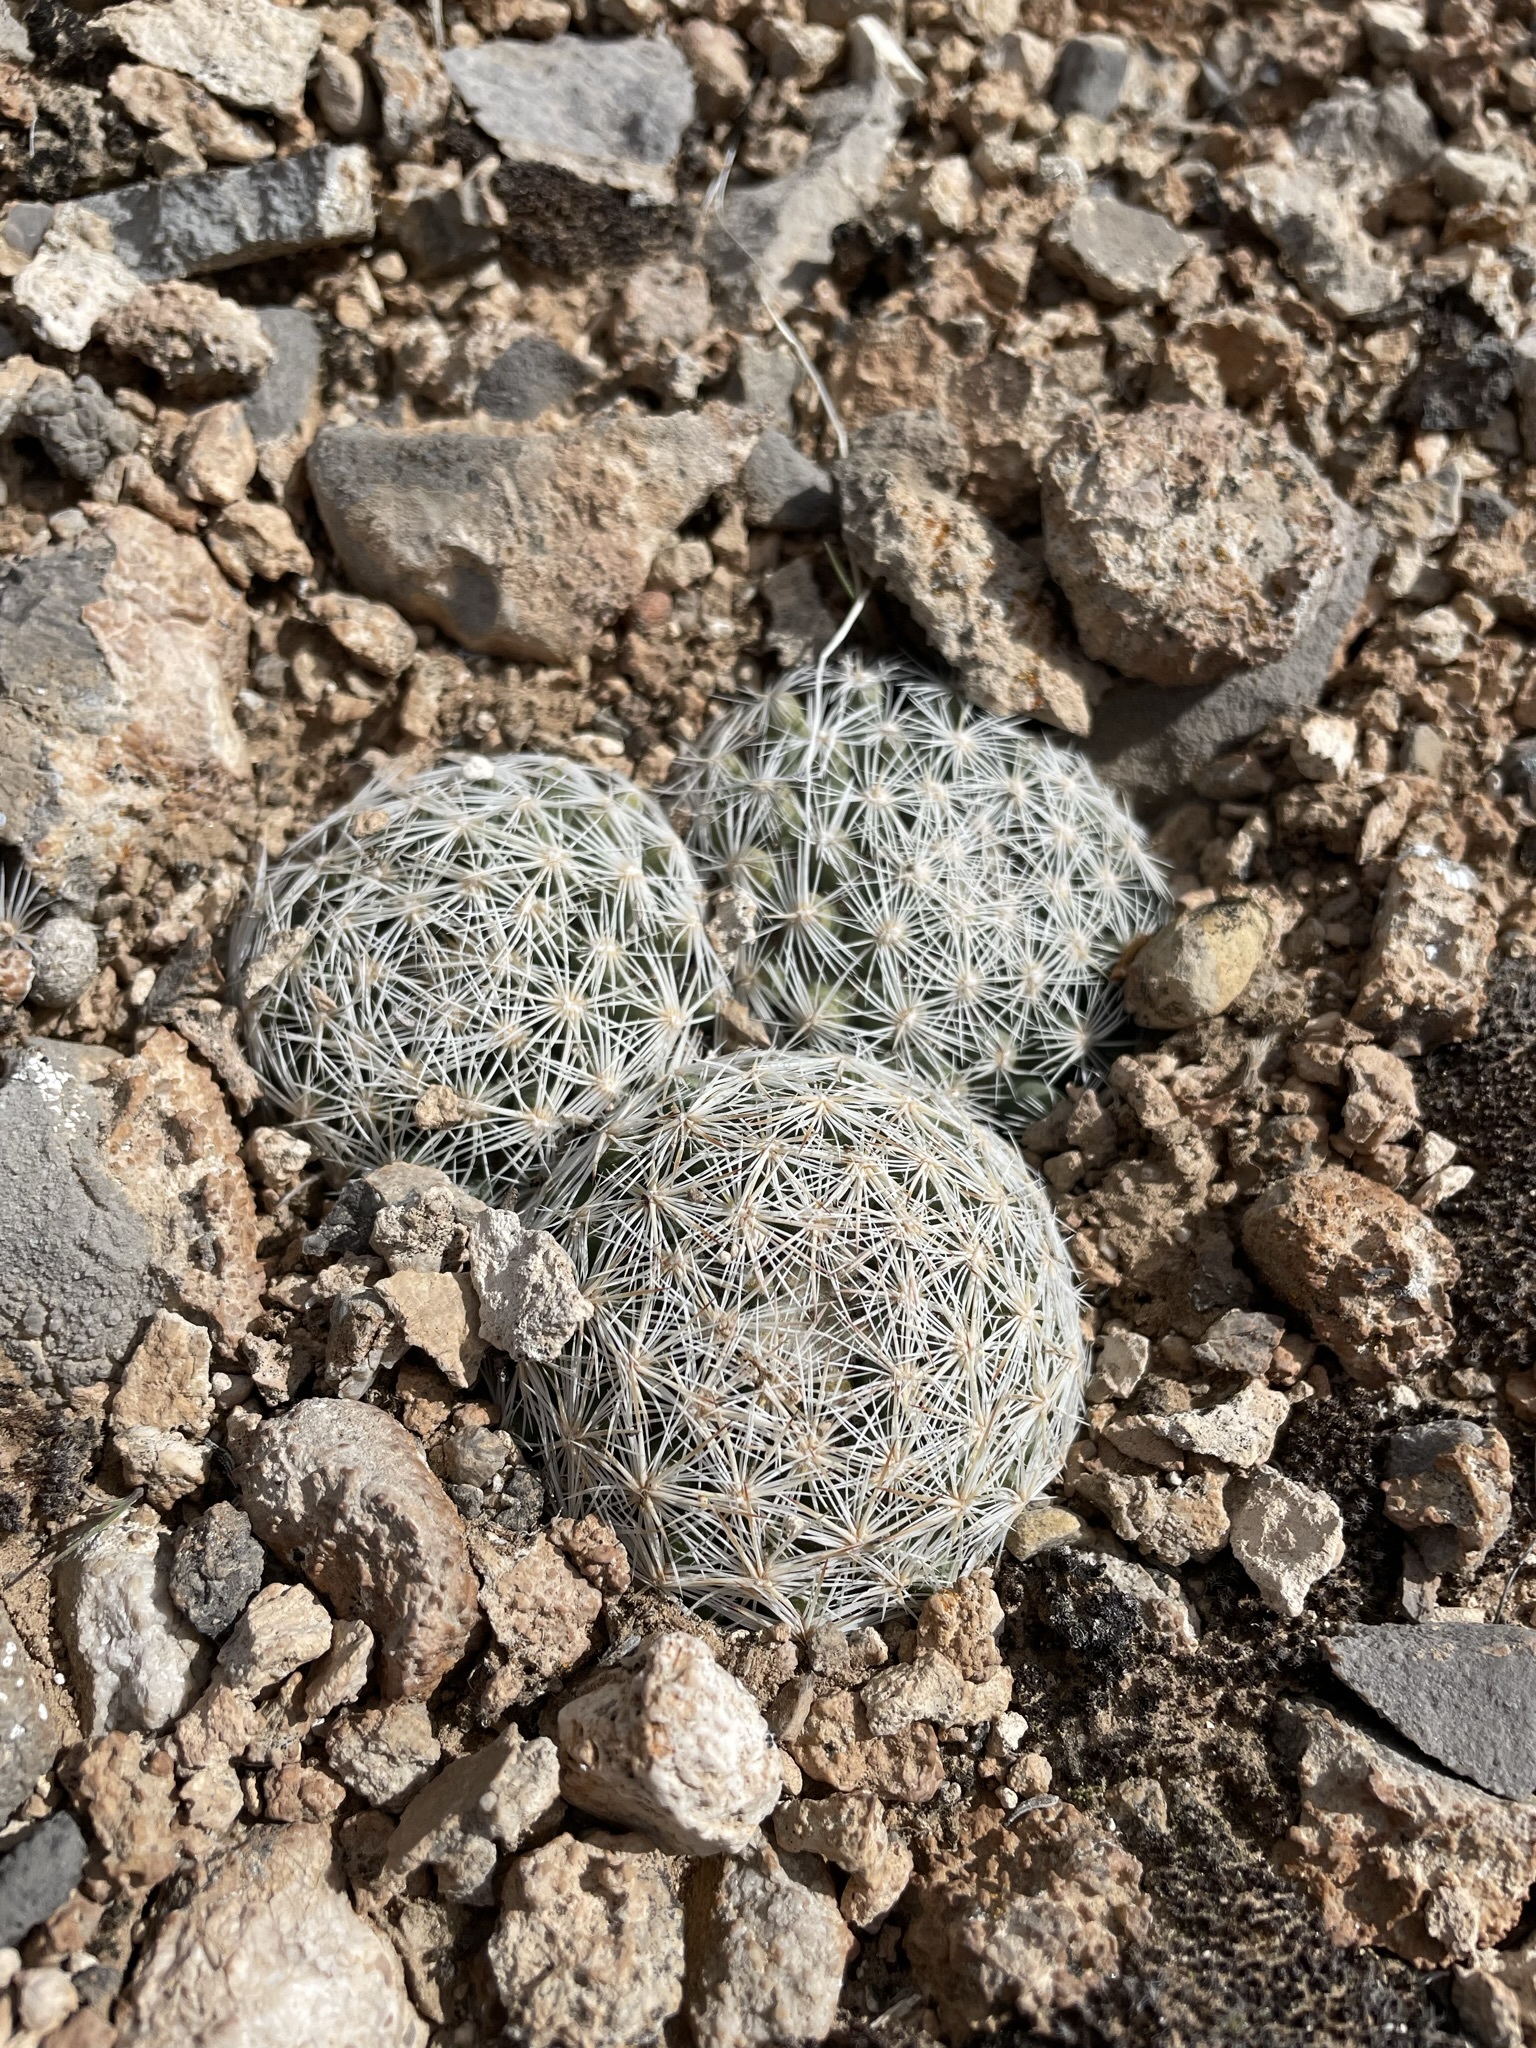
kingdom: Plantae
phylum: Tracheophyta
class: Magnoliopsida
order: Caryophyllales
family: Cactaceae
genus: Pelecyphora
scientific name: Pelecyphora vivipara
